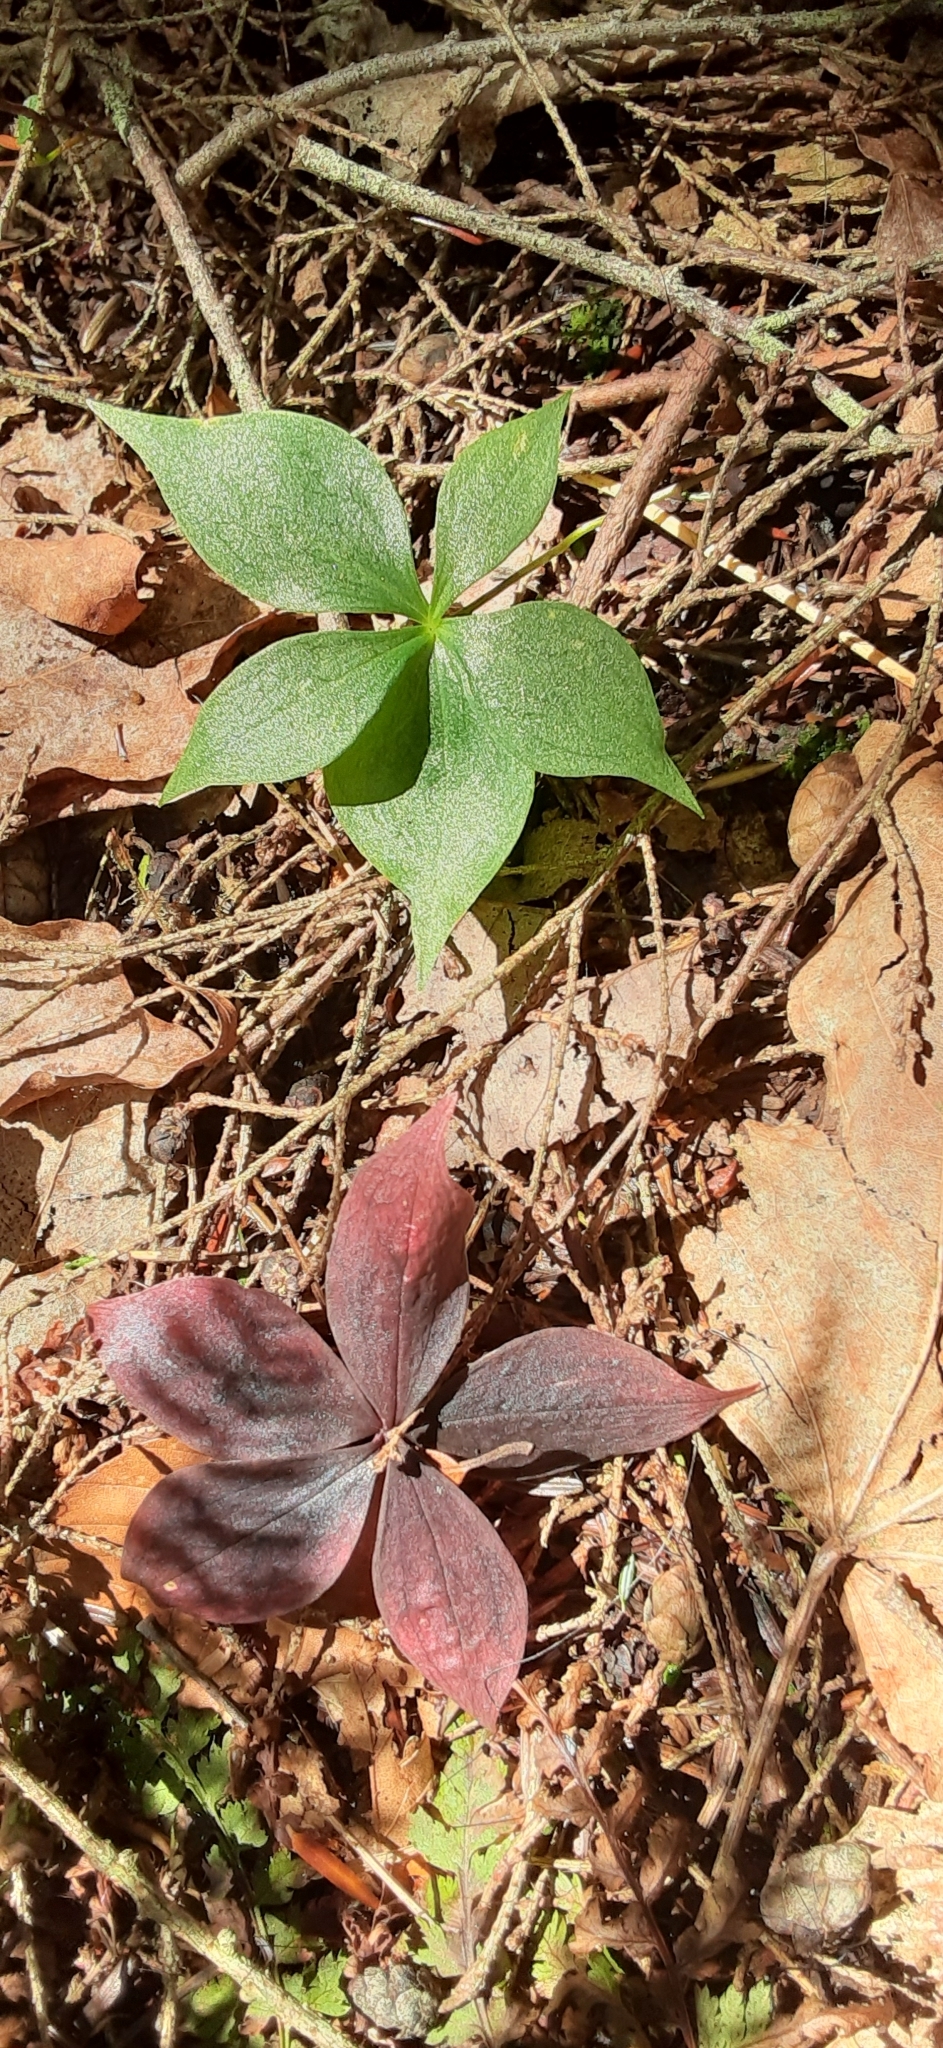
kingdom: Plantae
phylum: Tracheophyta
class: Liliopsida
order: Liliales
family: Liliaceae
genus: Medeola
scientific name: Medeola virginiana
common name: Indian cucumber-root
